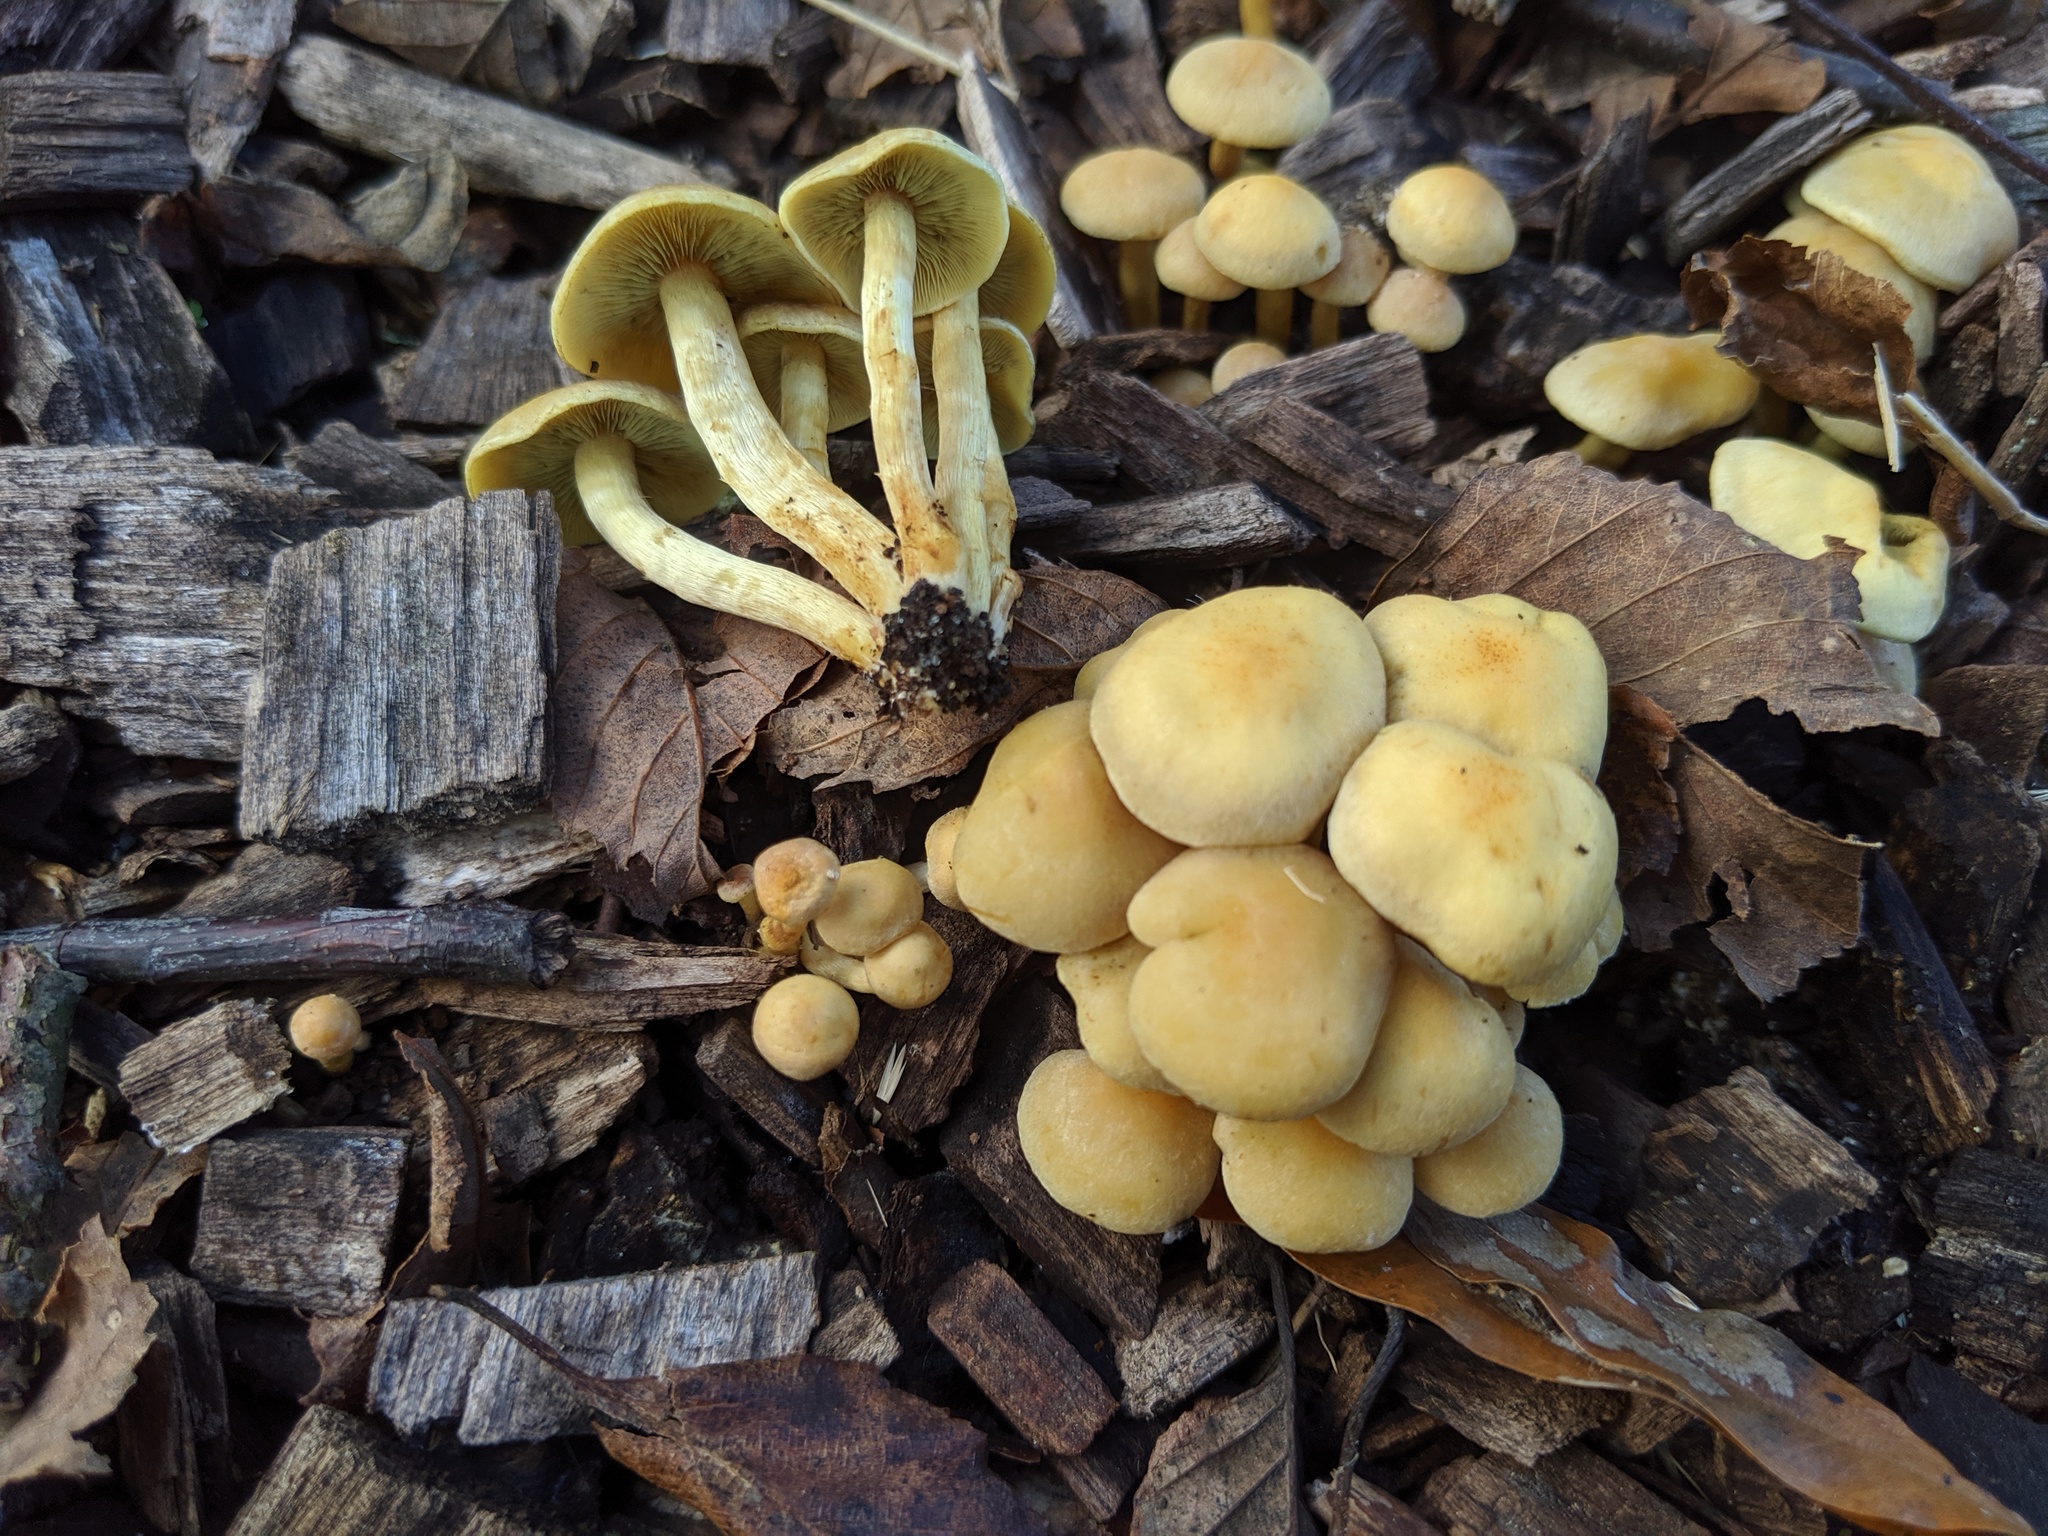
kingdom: Fungi
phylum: Basidiomycota
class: Agaricomycetes
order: Agaricales
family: Strophariaceae
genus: Hypholoma
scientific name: Hypholoma fasciculare
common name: Sulphur tuft
